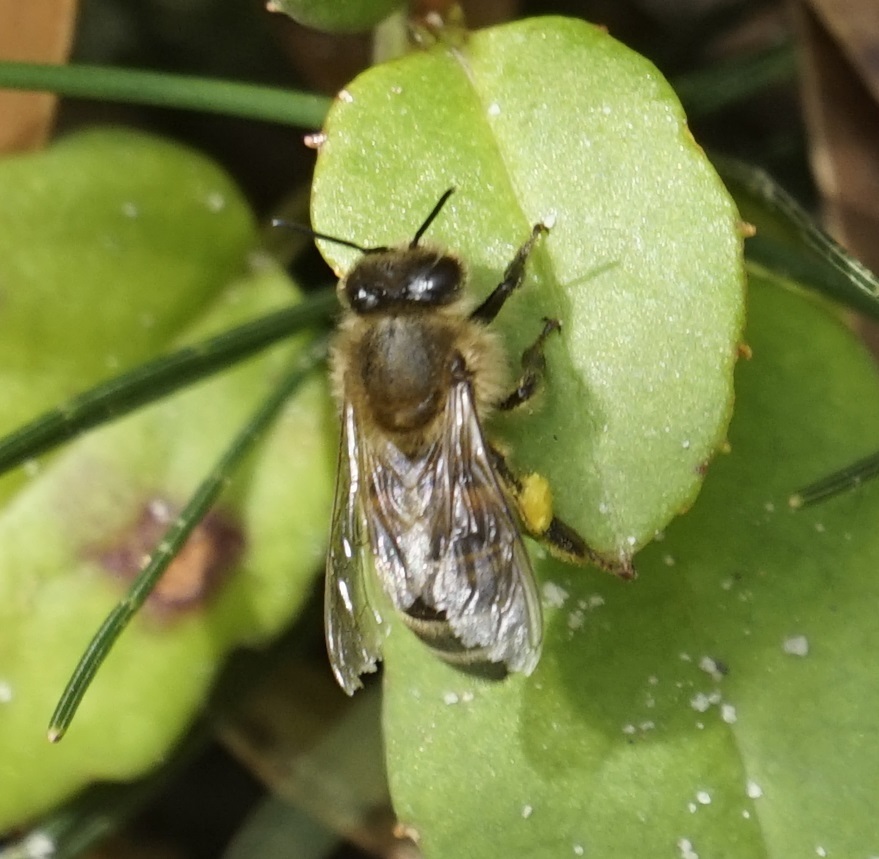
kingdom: Animalia
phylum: Arthropoda
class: Insecta
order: Hymenoptera
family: Apidae
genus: Apis
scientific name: Apis mellifera
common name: Honey bee
